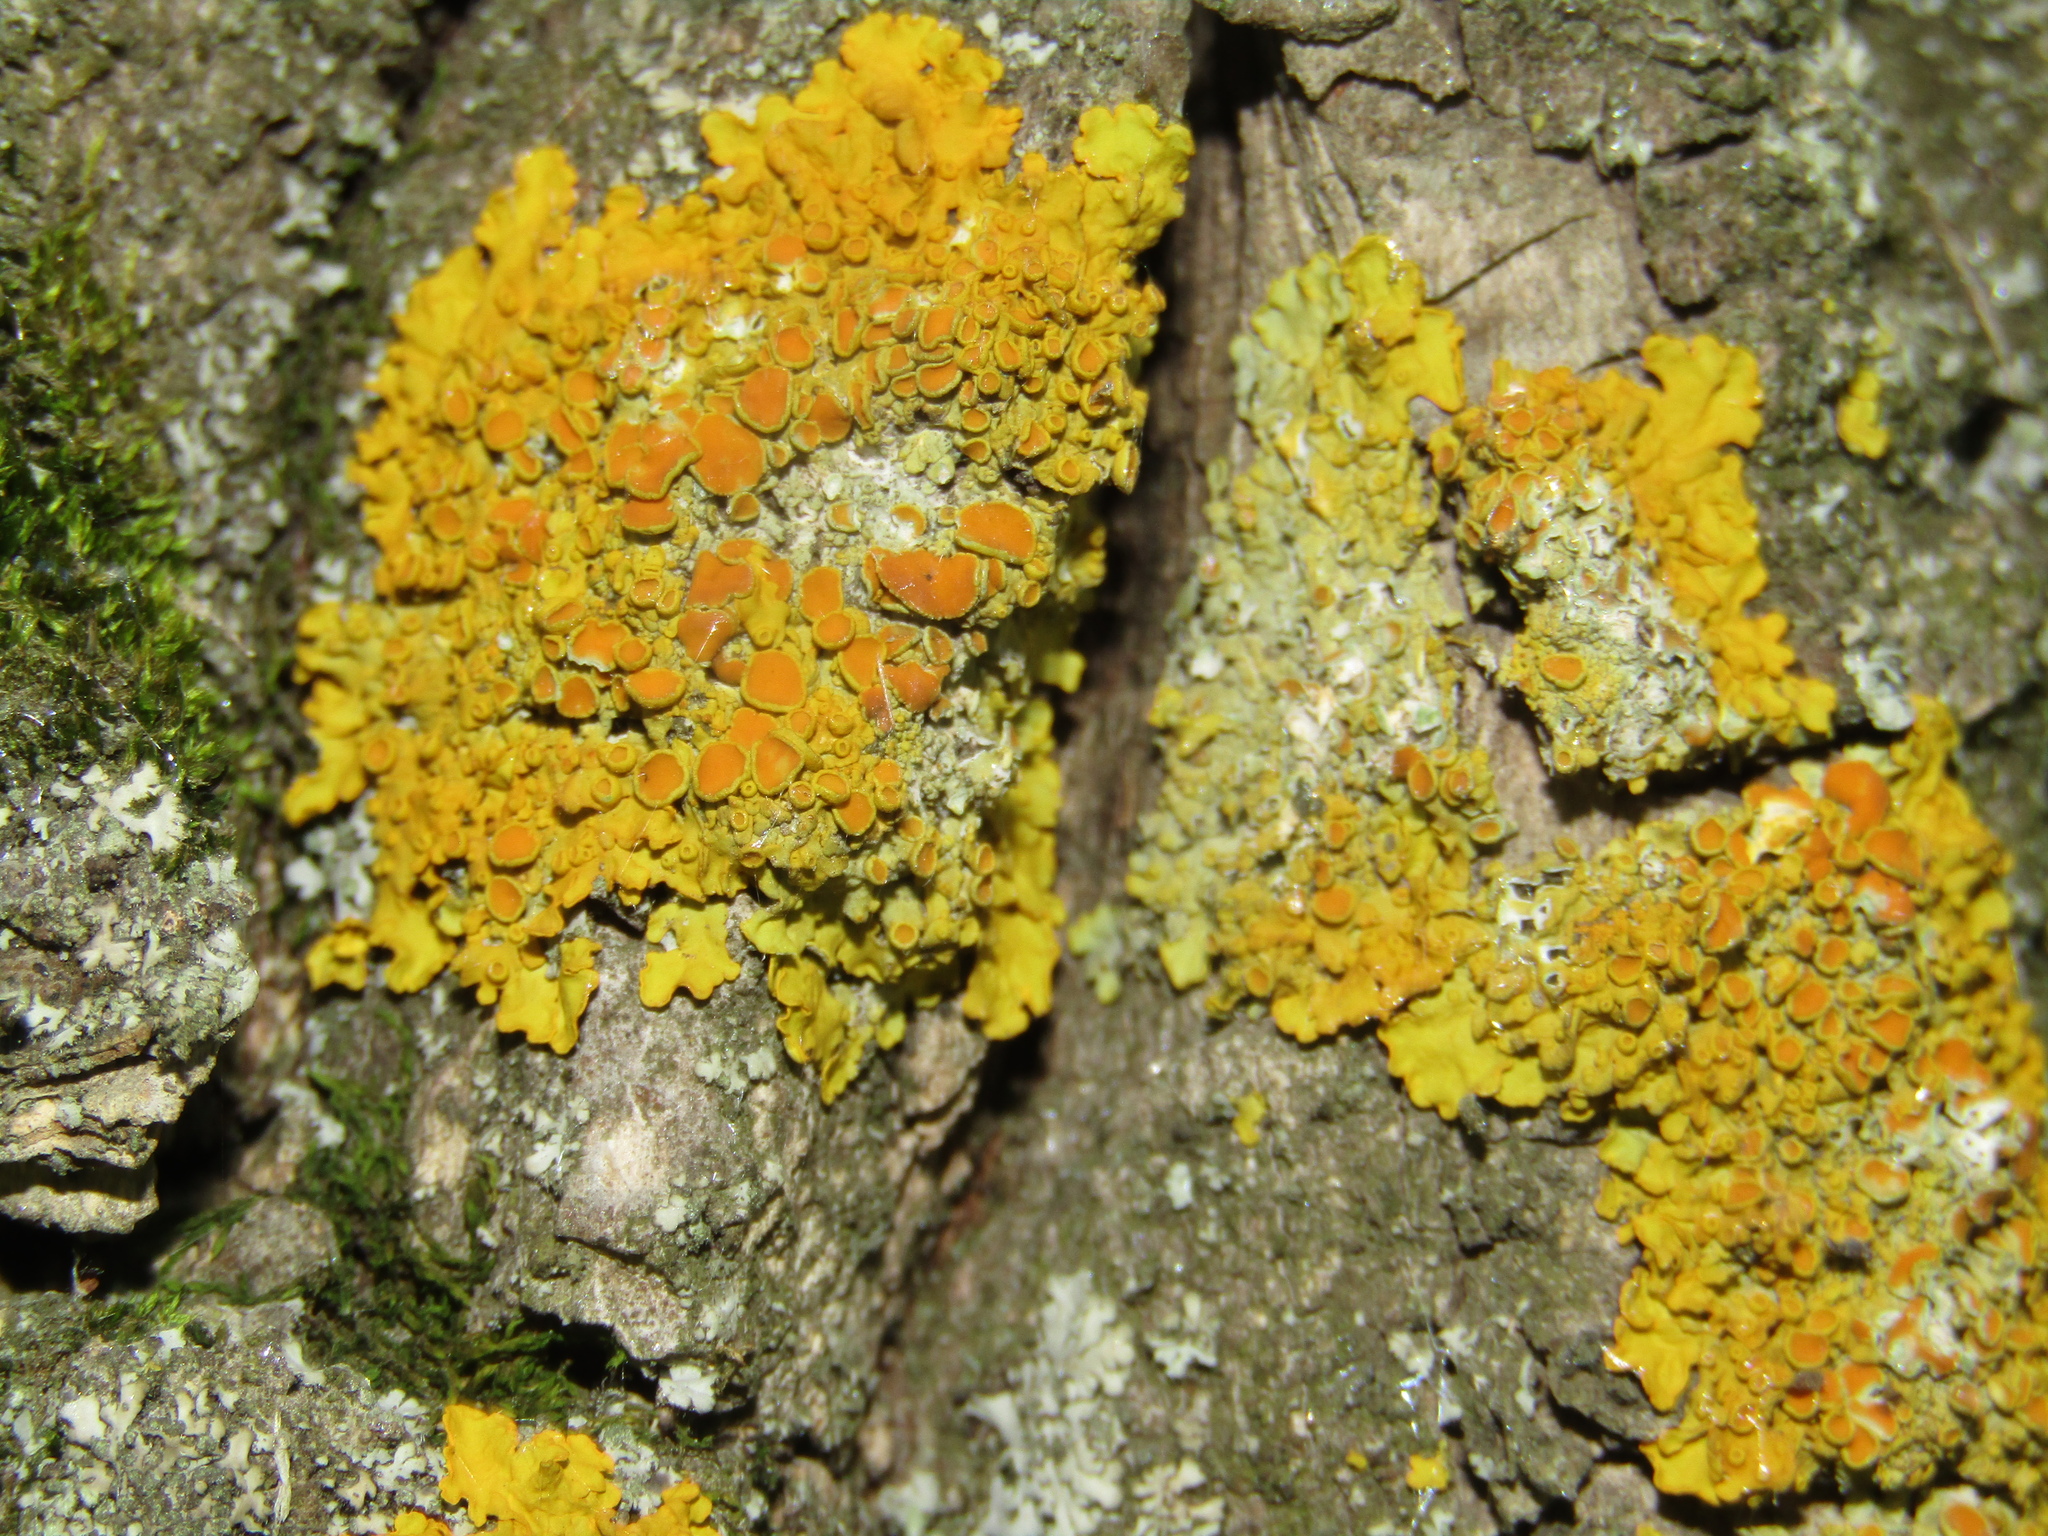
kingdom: Fungi
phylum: Ascomycota
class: Lecanoromycetes
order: Teloschistales
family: Teloschistaceae
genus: Xanthoria
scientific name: Xanthoria parietina
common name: Common orange lichen
